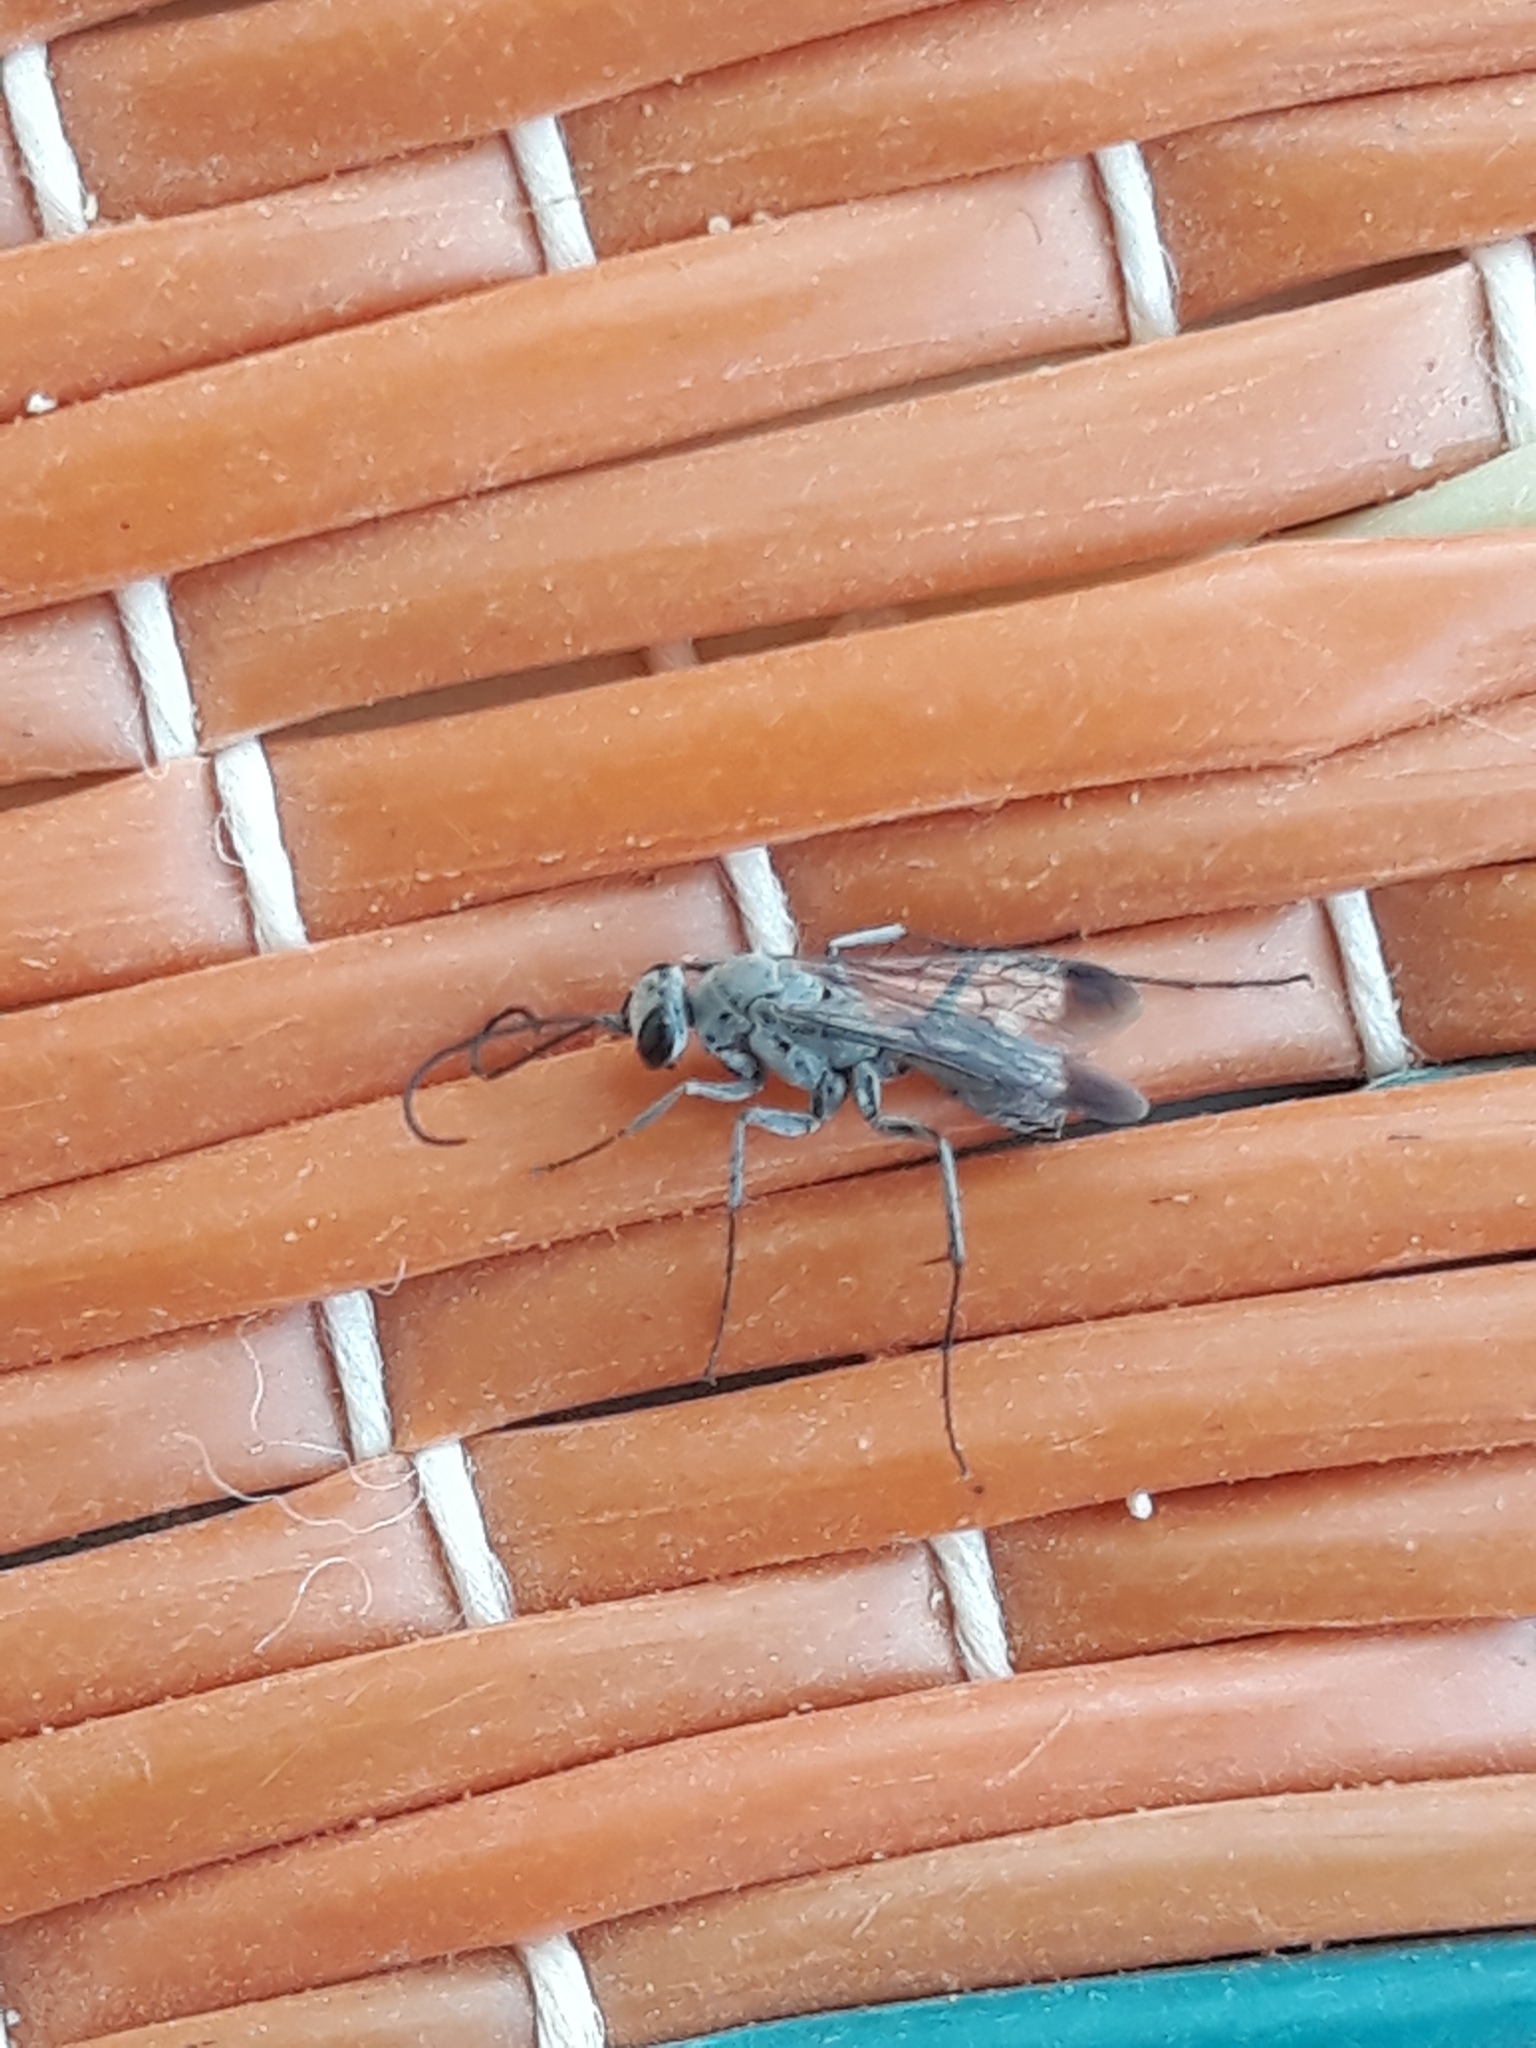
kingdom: Animalia
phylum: Arthropoda
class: Insecta
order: Hymenoptera
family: Pompilidae
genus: Pompilus
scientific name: Pompilus cinereus
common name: Leaden spider wasp
